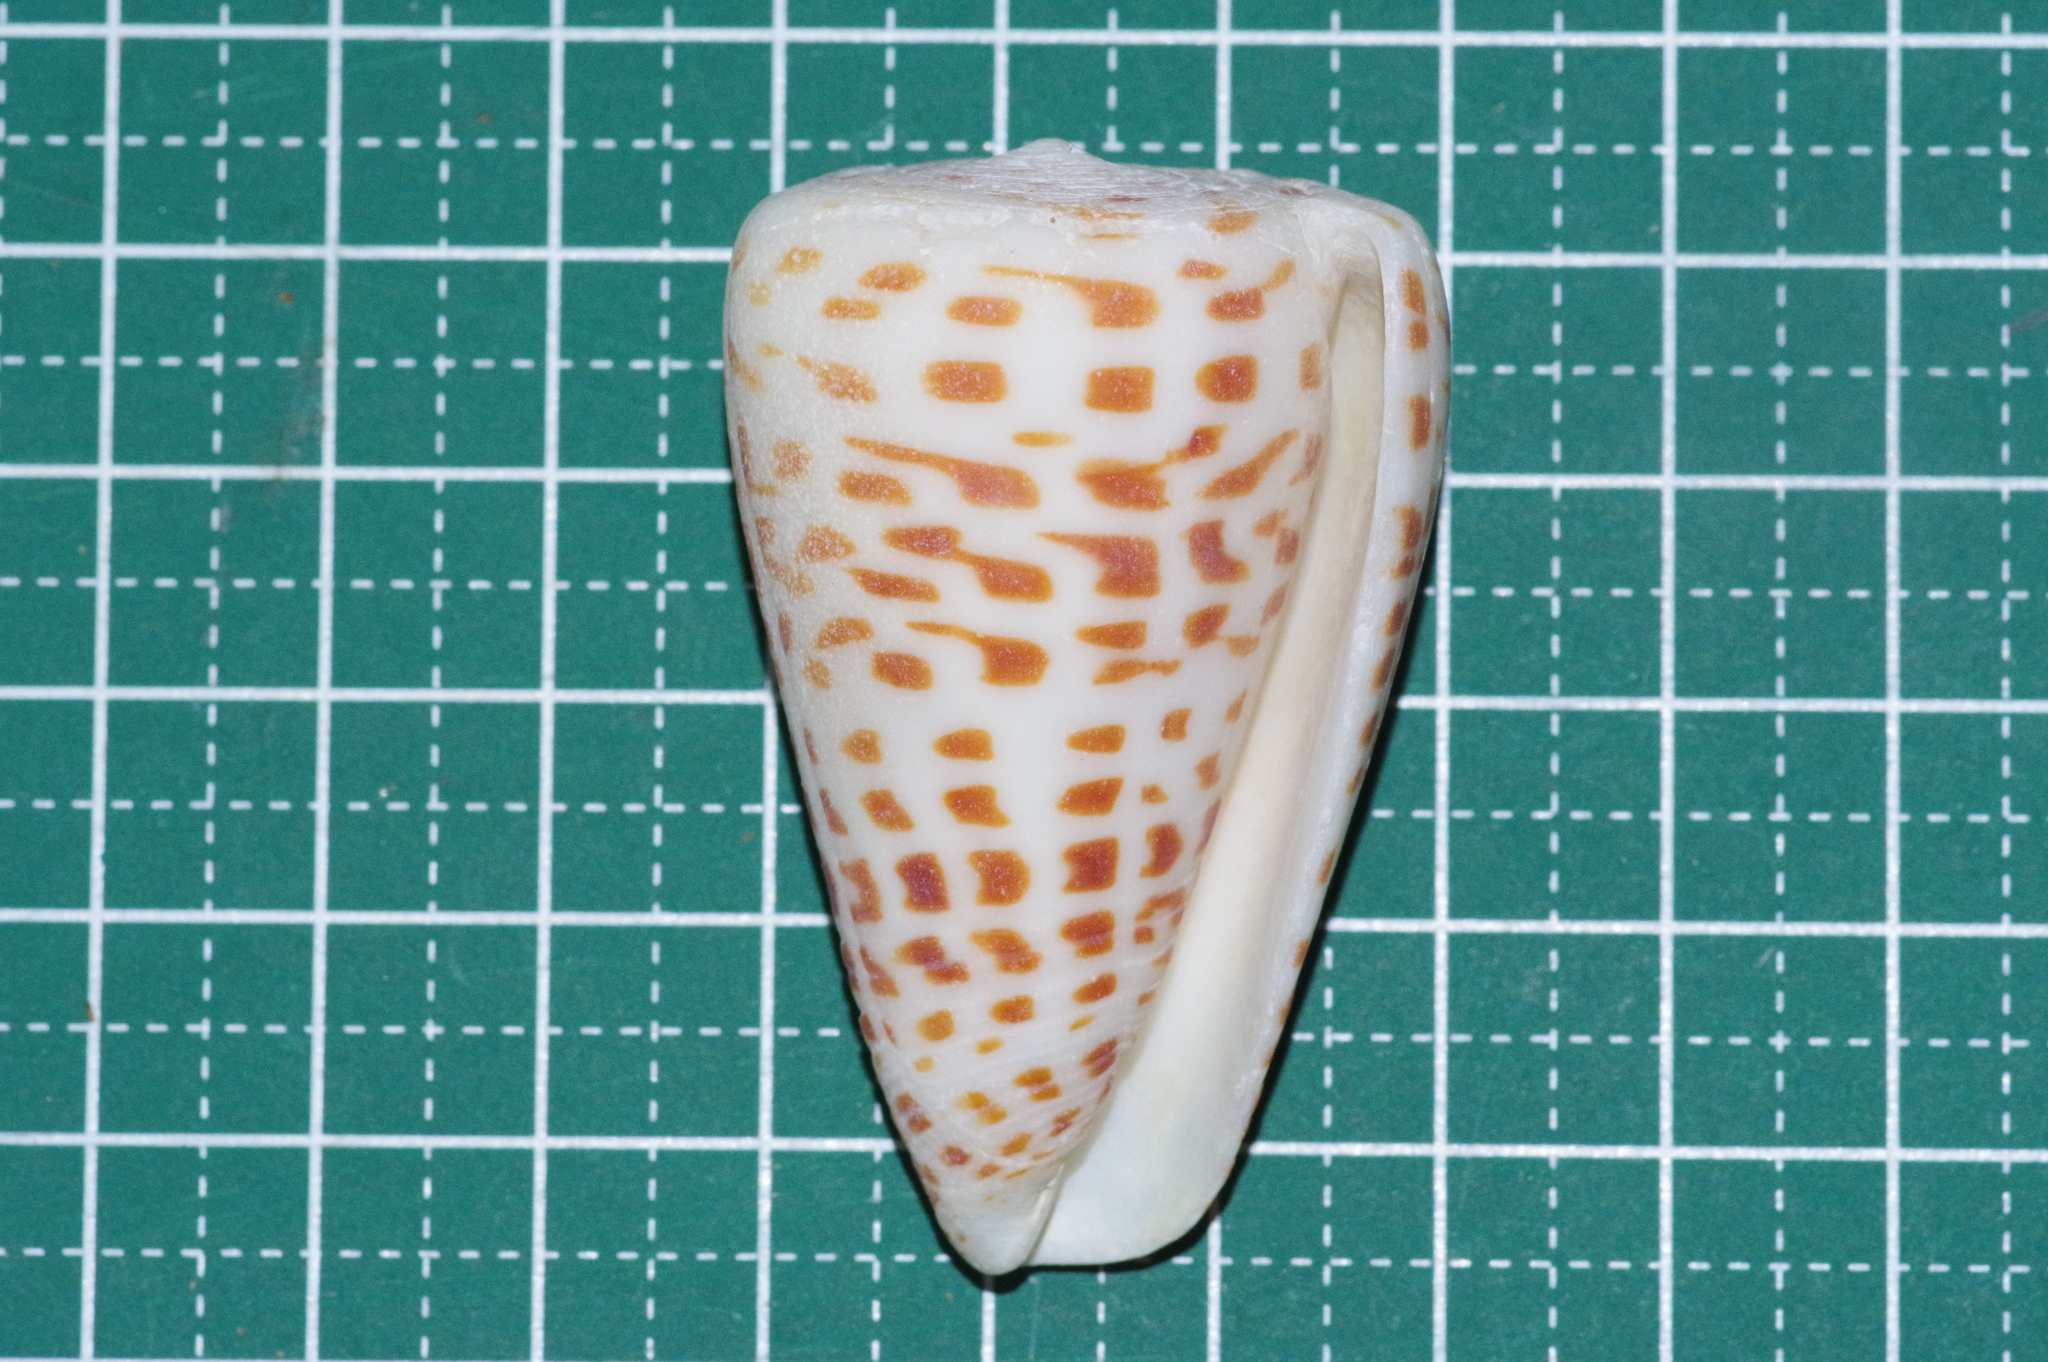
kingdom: Animalia
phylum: Mollusca
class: Gastropoda
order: Neogastropoda
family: Conidae
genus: Conus
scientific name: Conus eburneus
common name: Ivory cone
